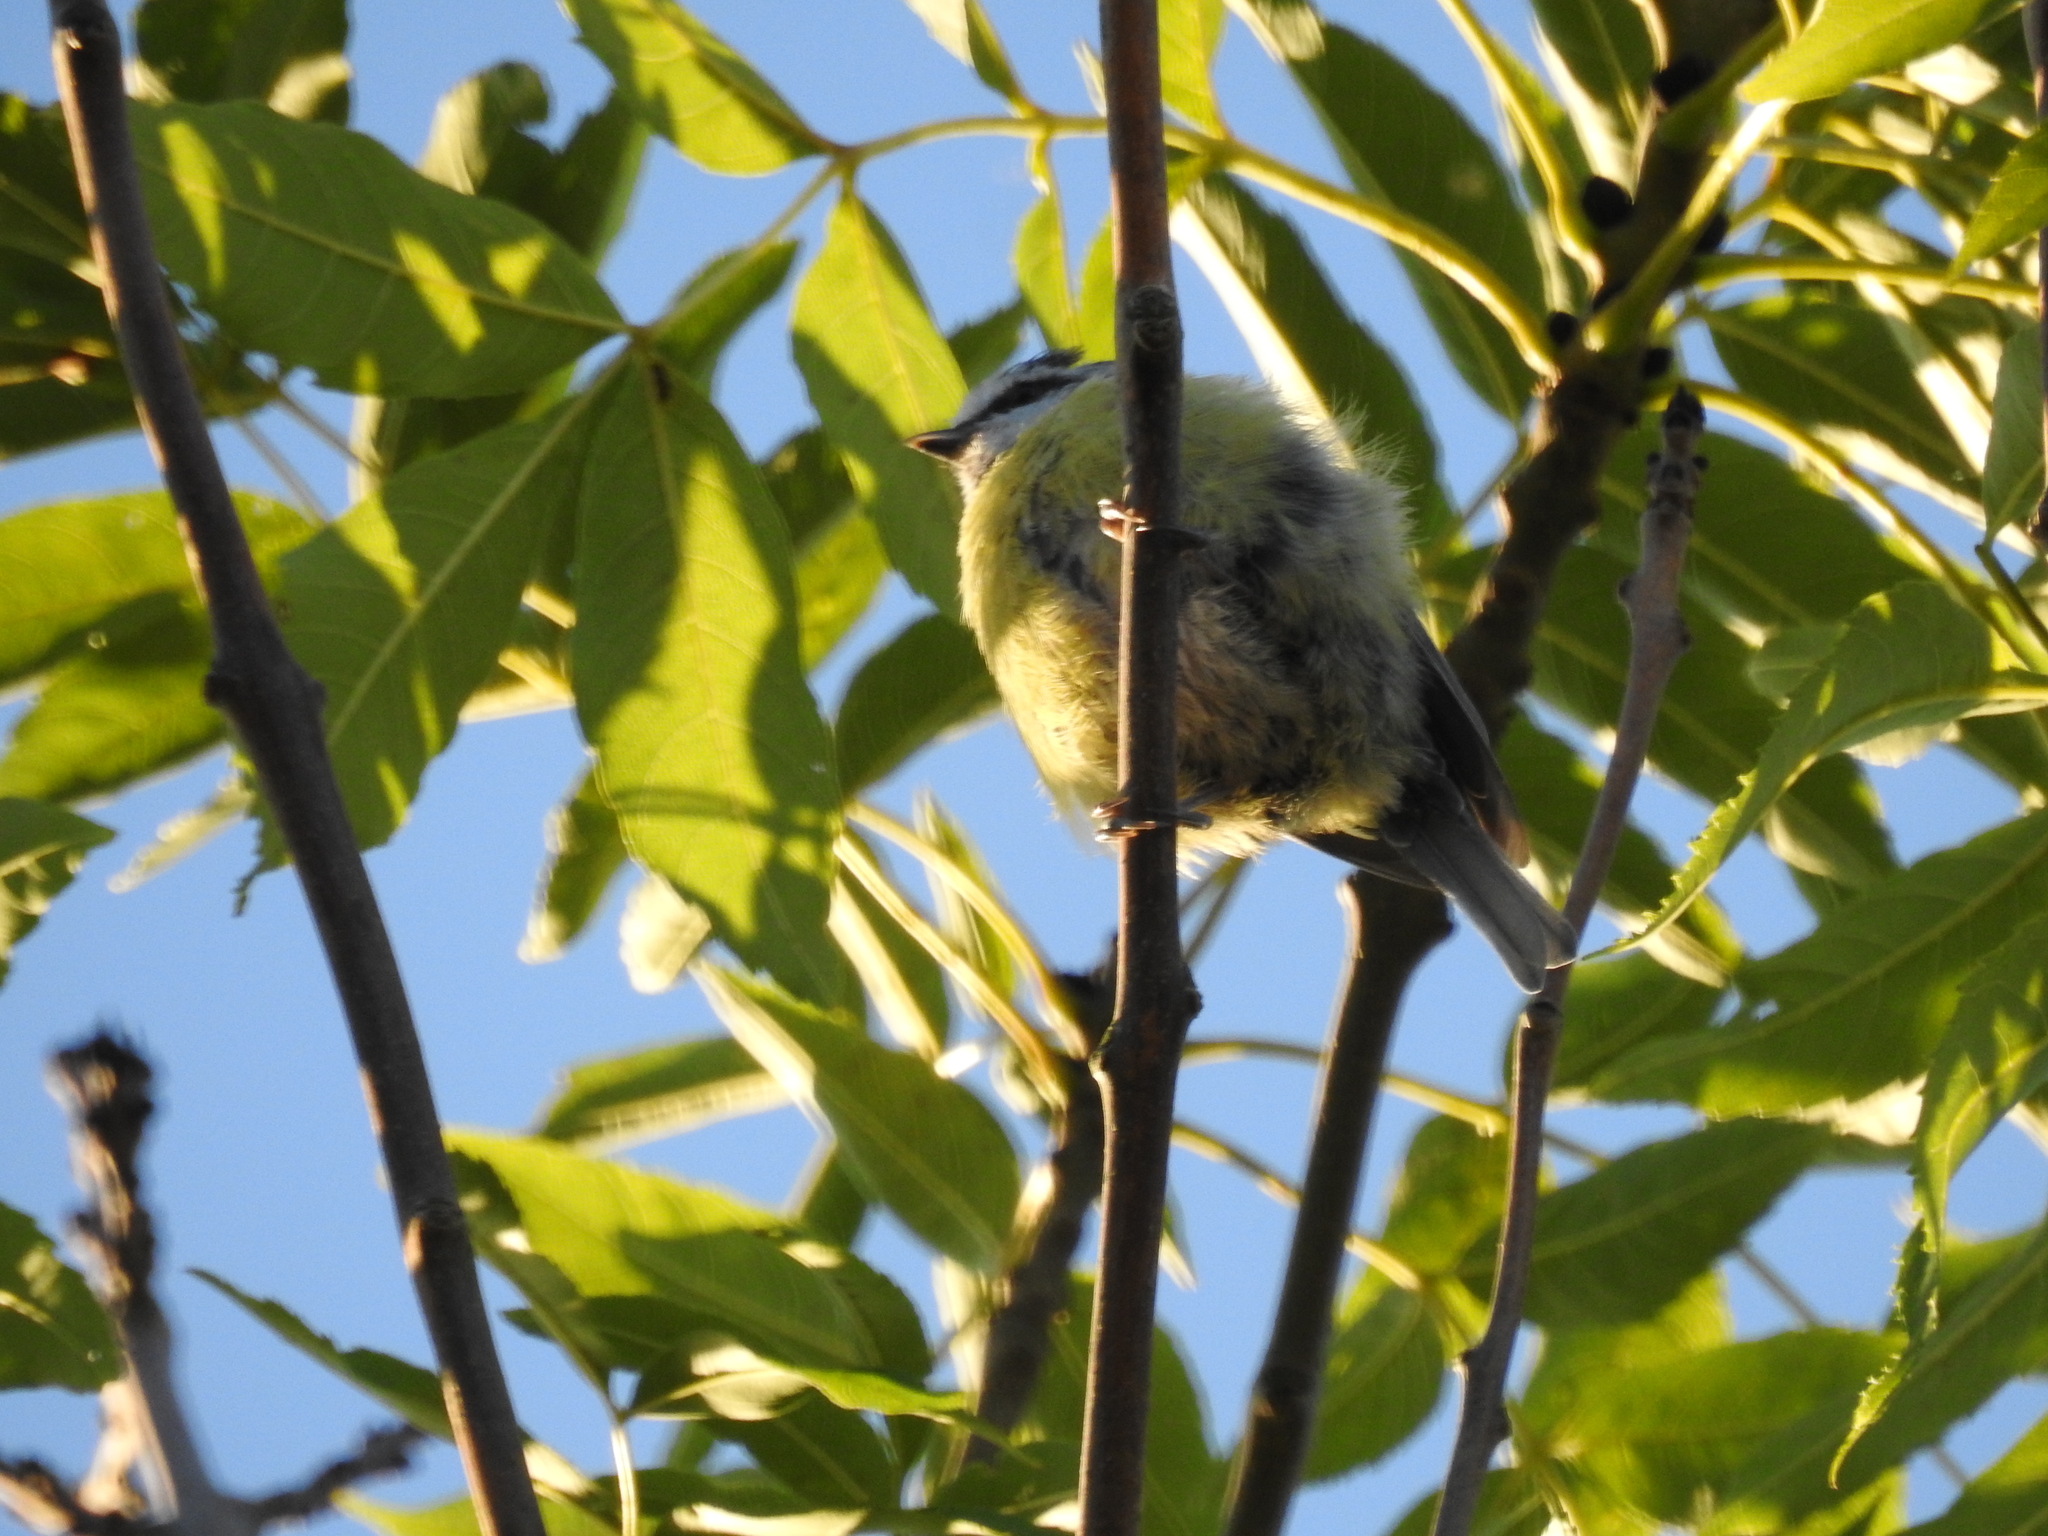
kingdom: Animalia
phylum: Chordata
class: Aves
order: Passeriformes
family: Paridae
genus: Cyanistes
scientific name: Cyanistes caeruleus
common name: Eurasian blue tit
